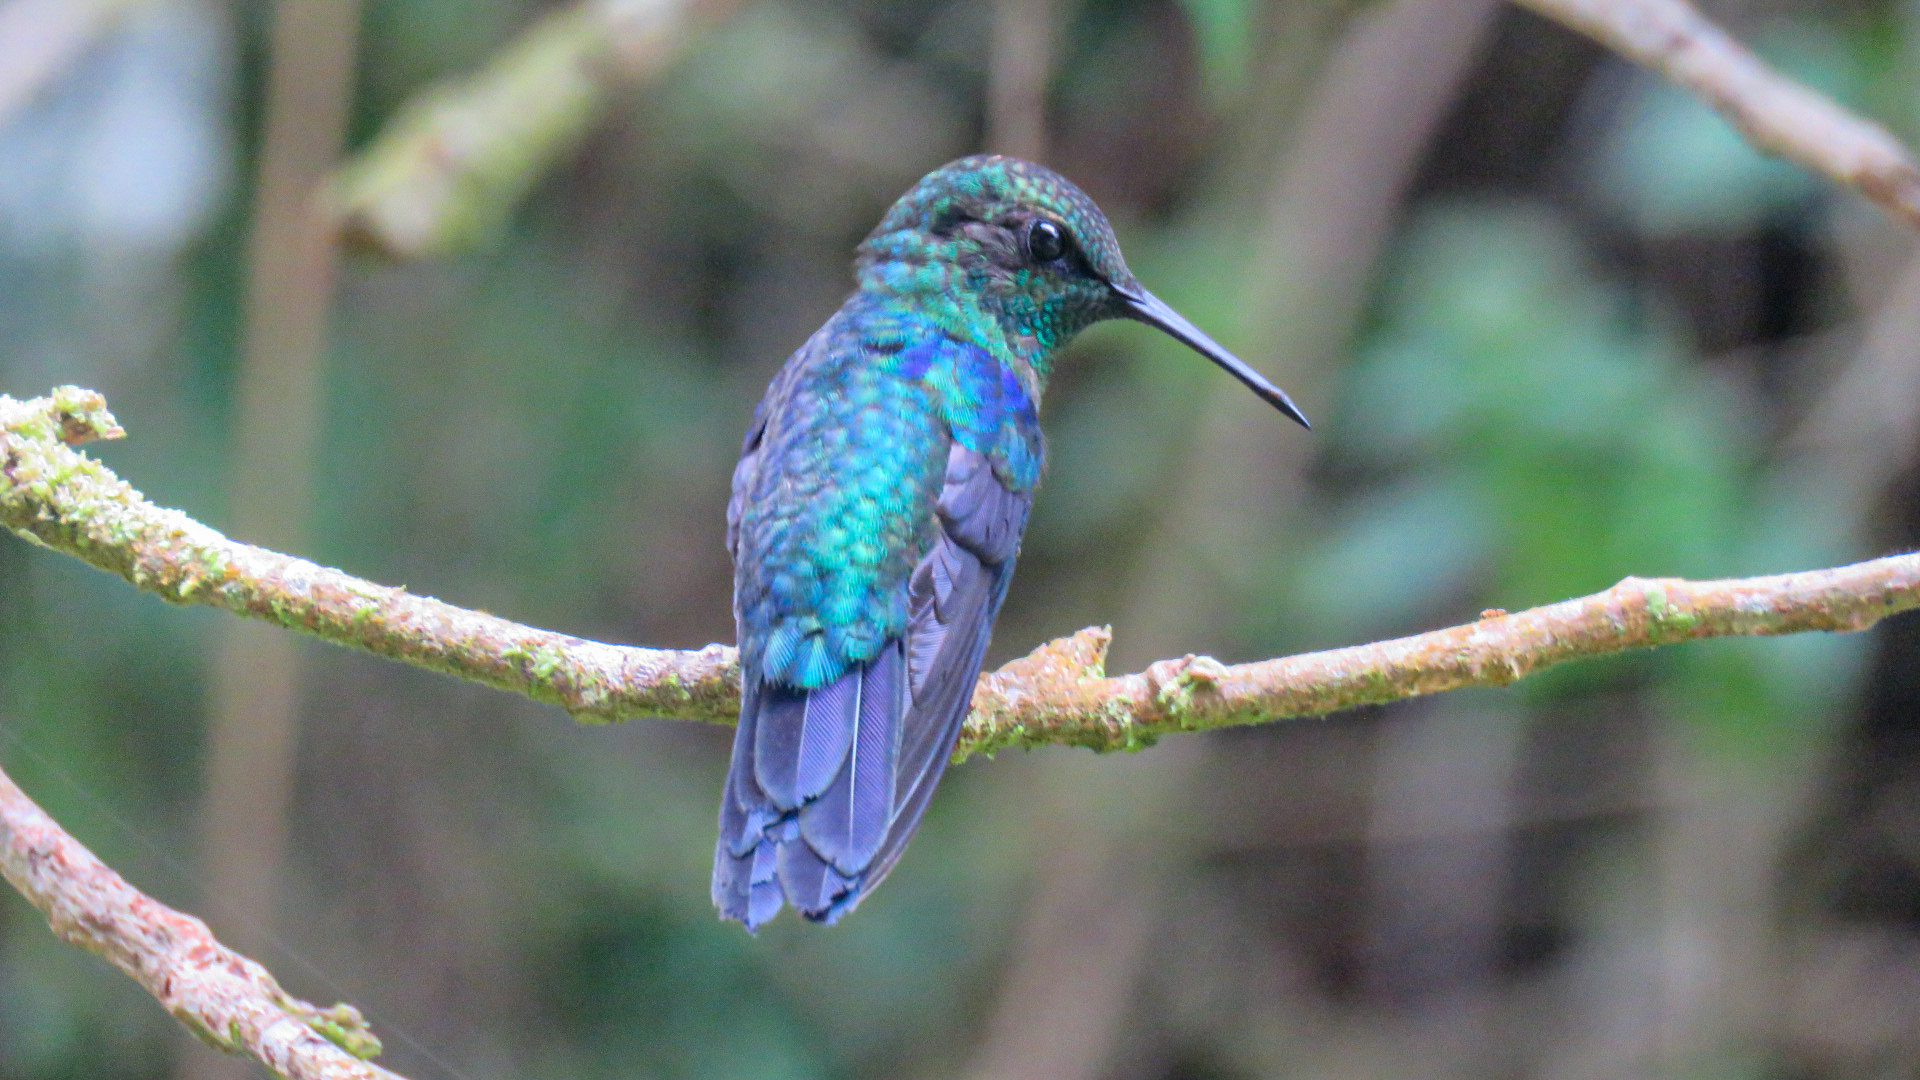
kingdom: Animalia
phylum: Chordata
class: Aves
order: Apodiformes
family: Trochilidae
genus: Thalurania
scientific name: Thalurania colombica
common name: Crowned woodnymph
